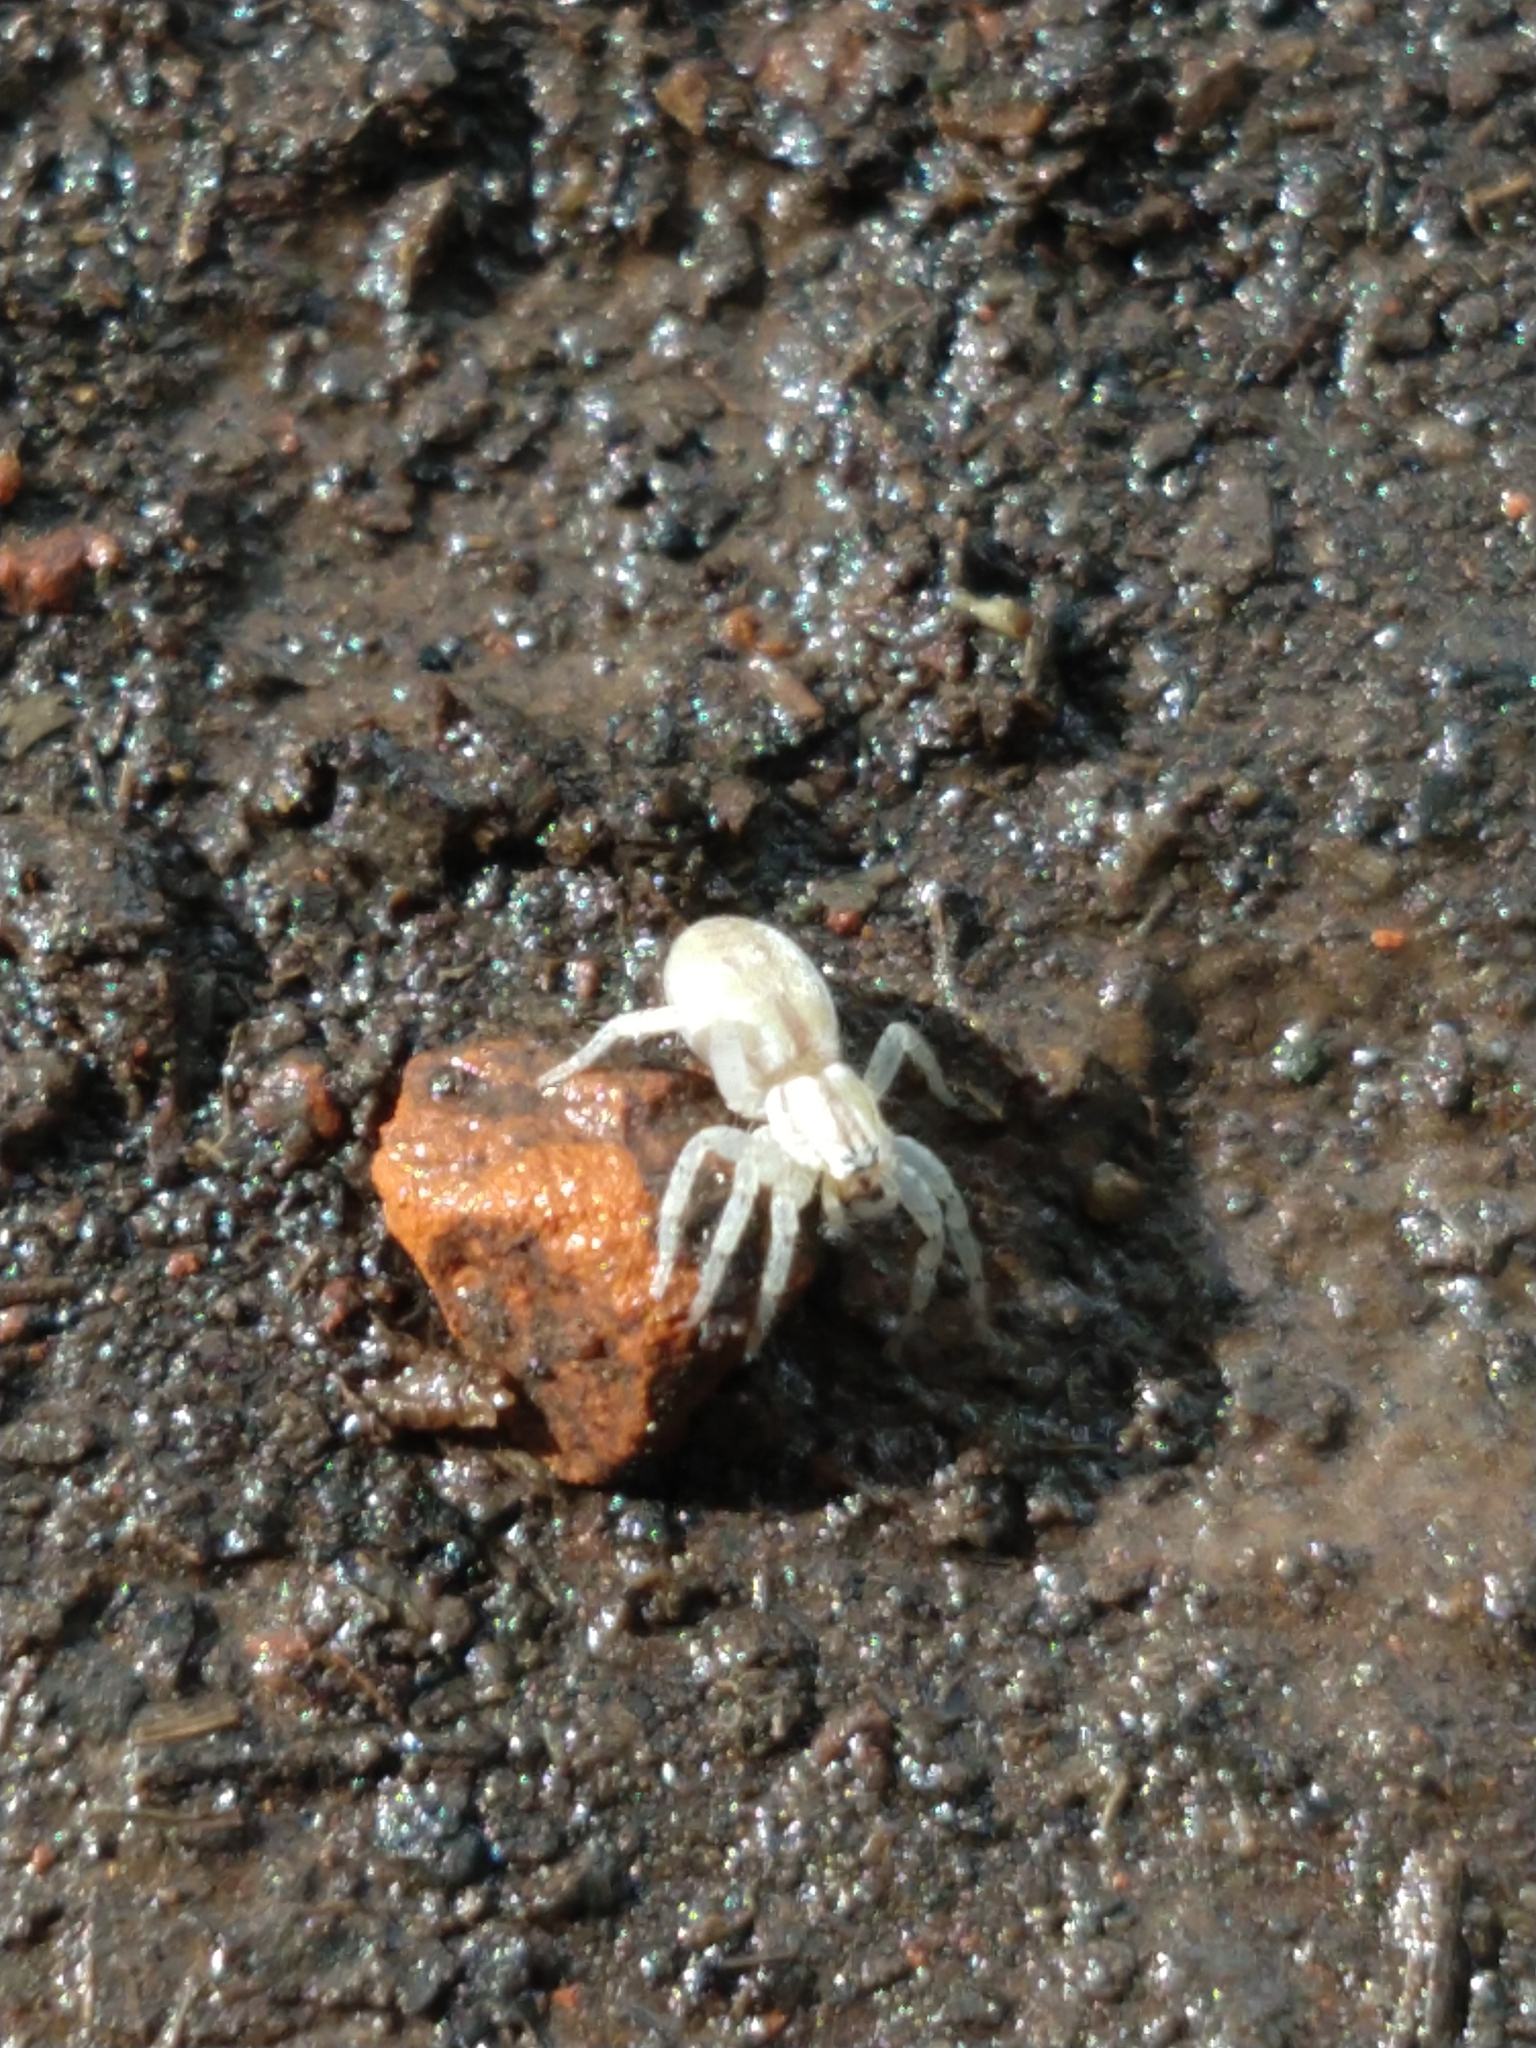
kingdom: Animalia
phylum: Arthropoda
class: Arachnida
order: Araneae
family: Anyphaenidae
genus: Arachosia
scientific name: Arachosia praesignis
